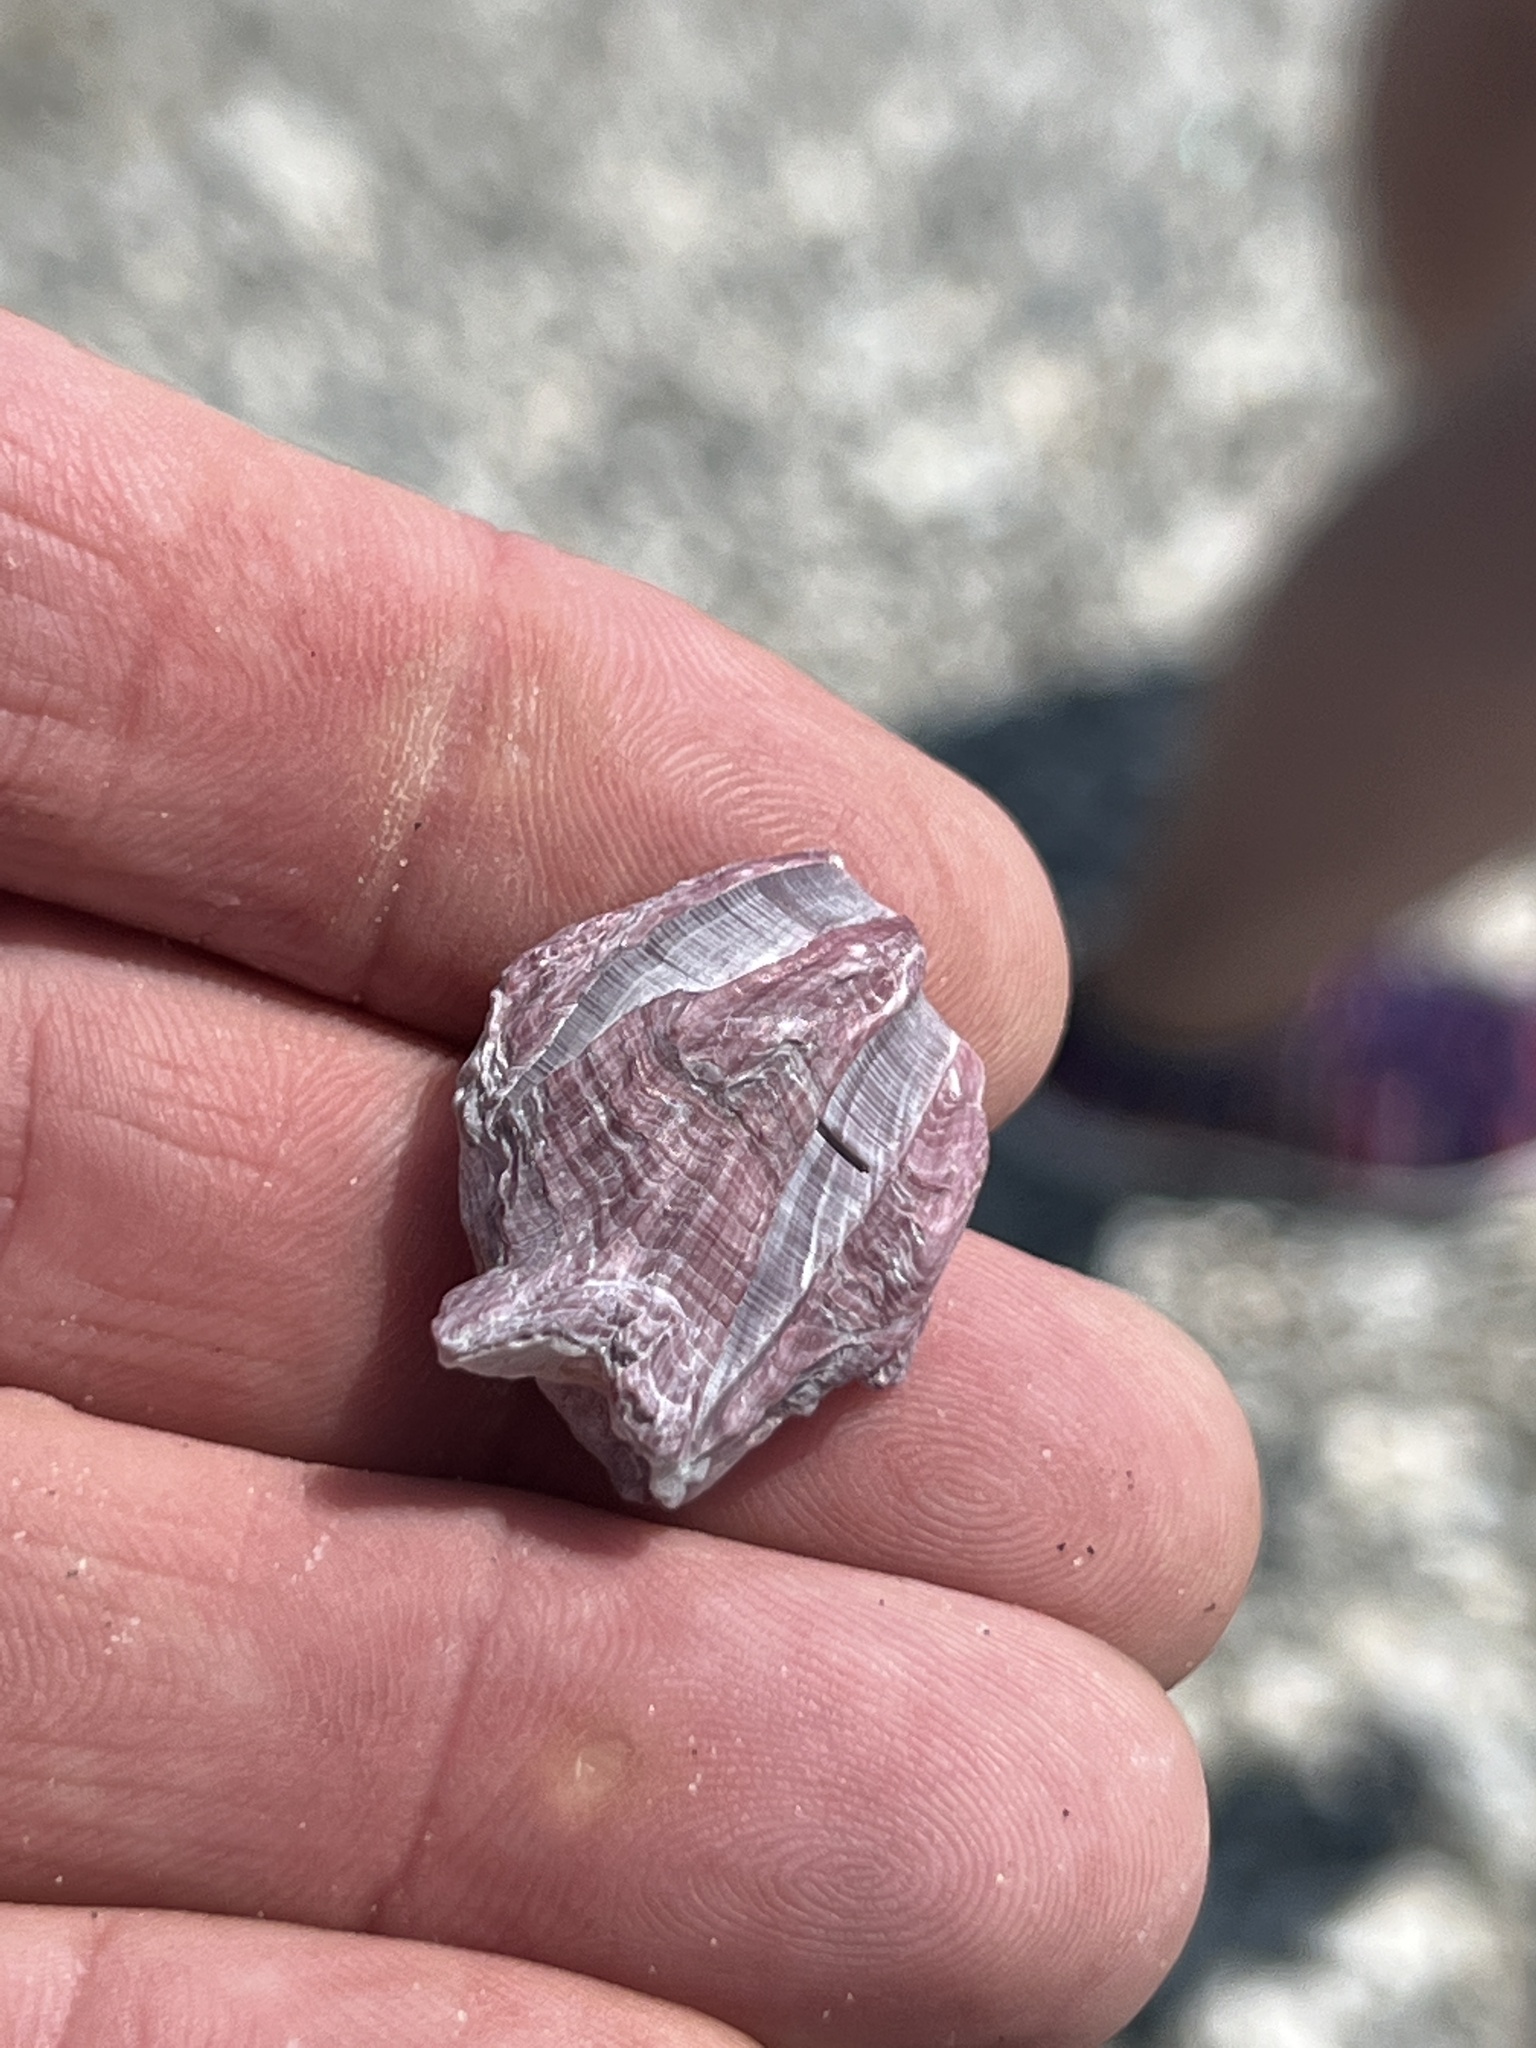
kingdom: Animalia
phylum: Arthropoda
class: Maxillopoda
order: Sessilia
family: Balanidae
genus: Megabalanus
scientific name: Megabalanus tintinnabulum
